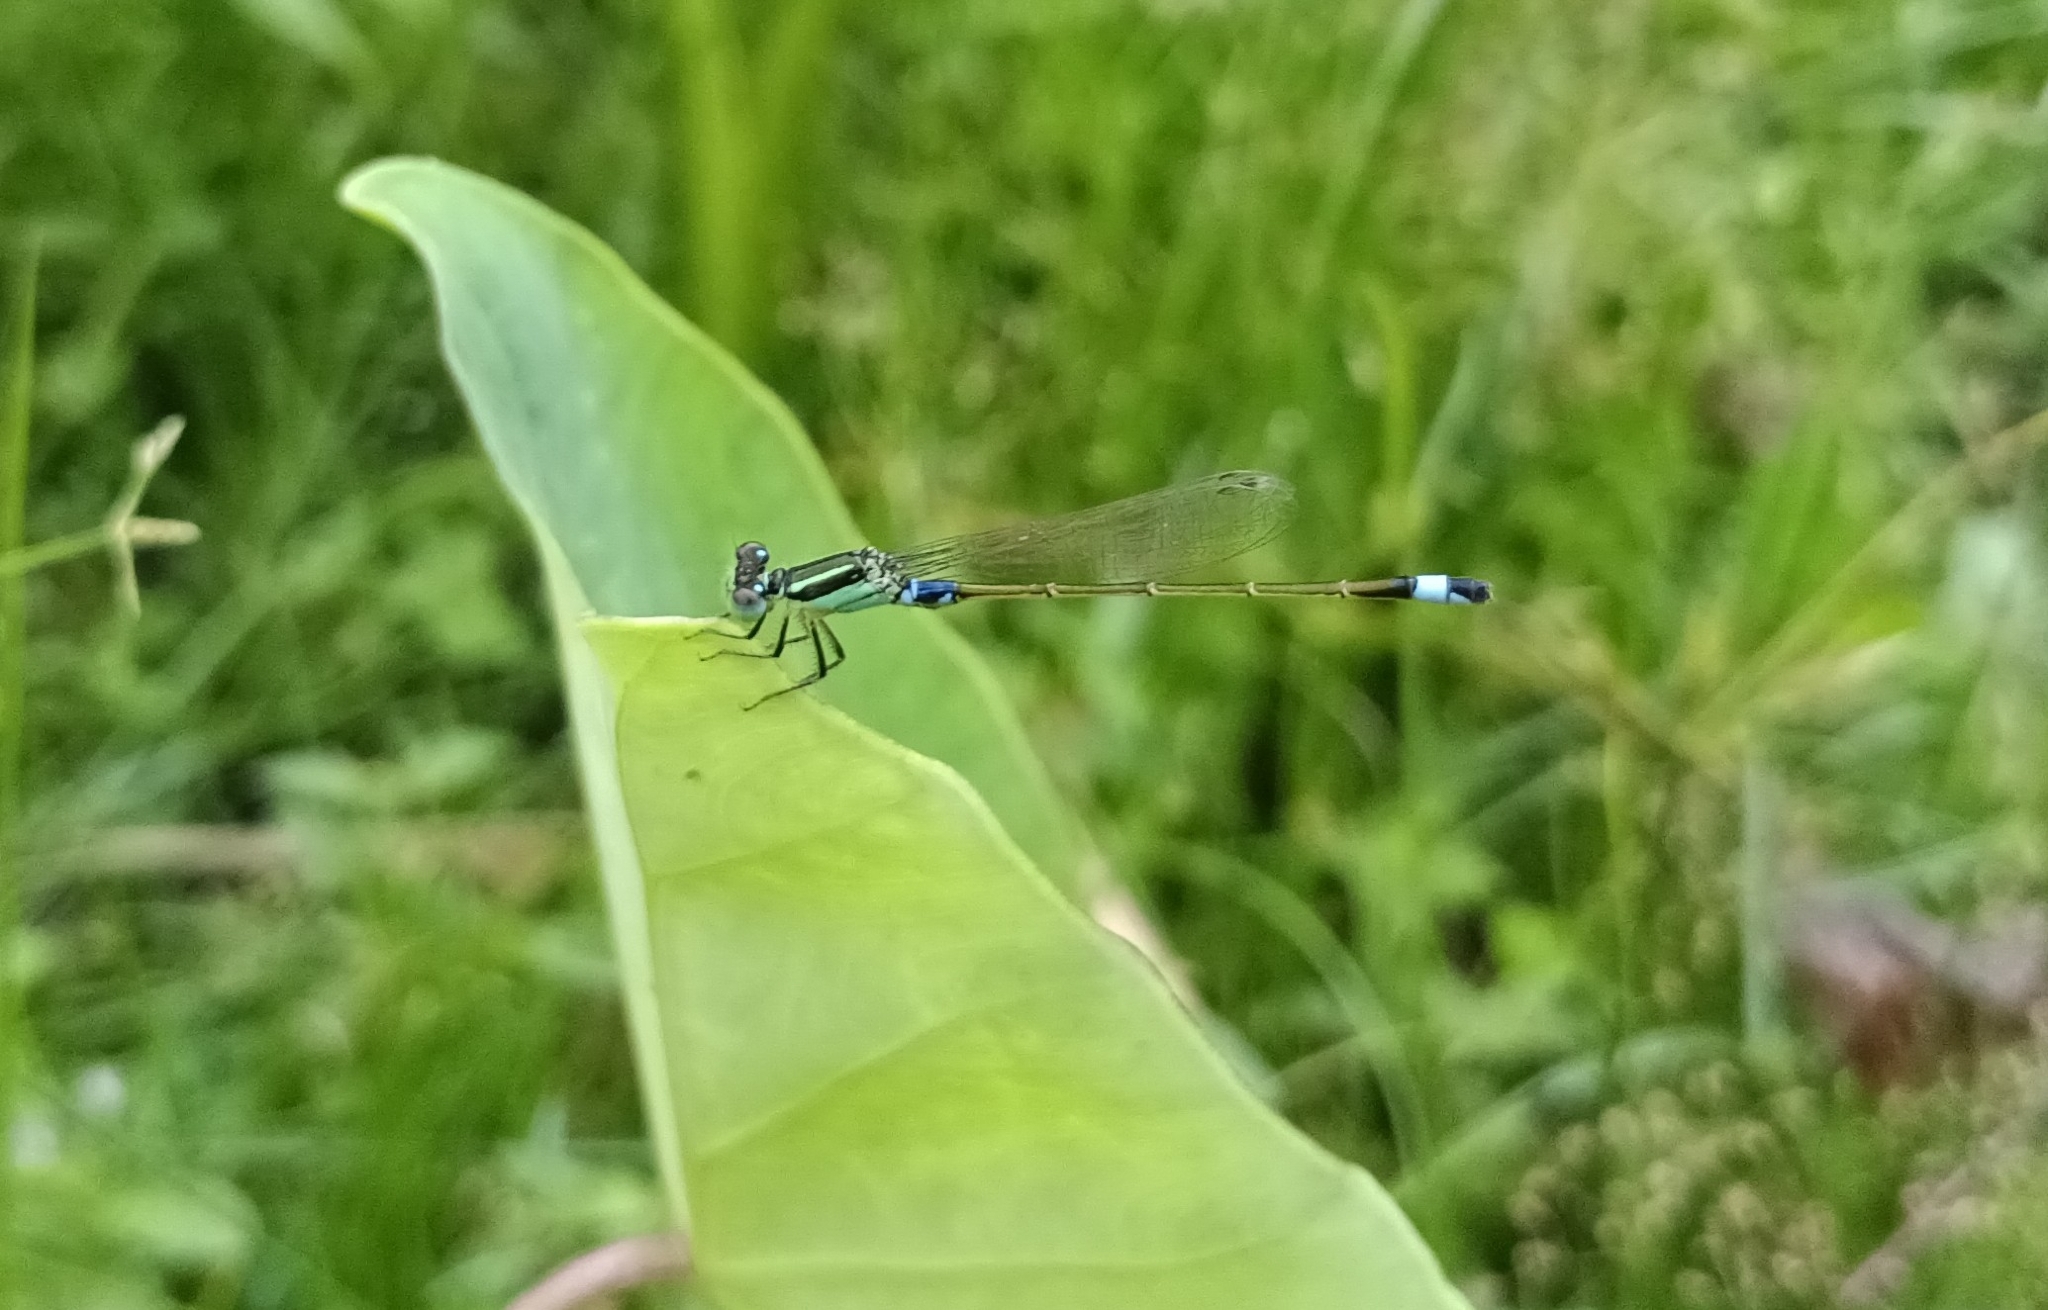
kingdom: Animalia
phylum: Arthropoda
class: Insecta
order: Odonata
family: Coenagrionidae
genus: Ischnura
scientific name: Ischnura senegalensis
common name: Tropical bluetail
